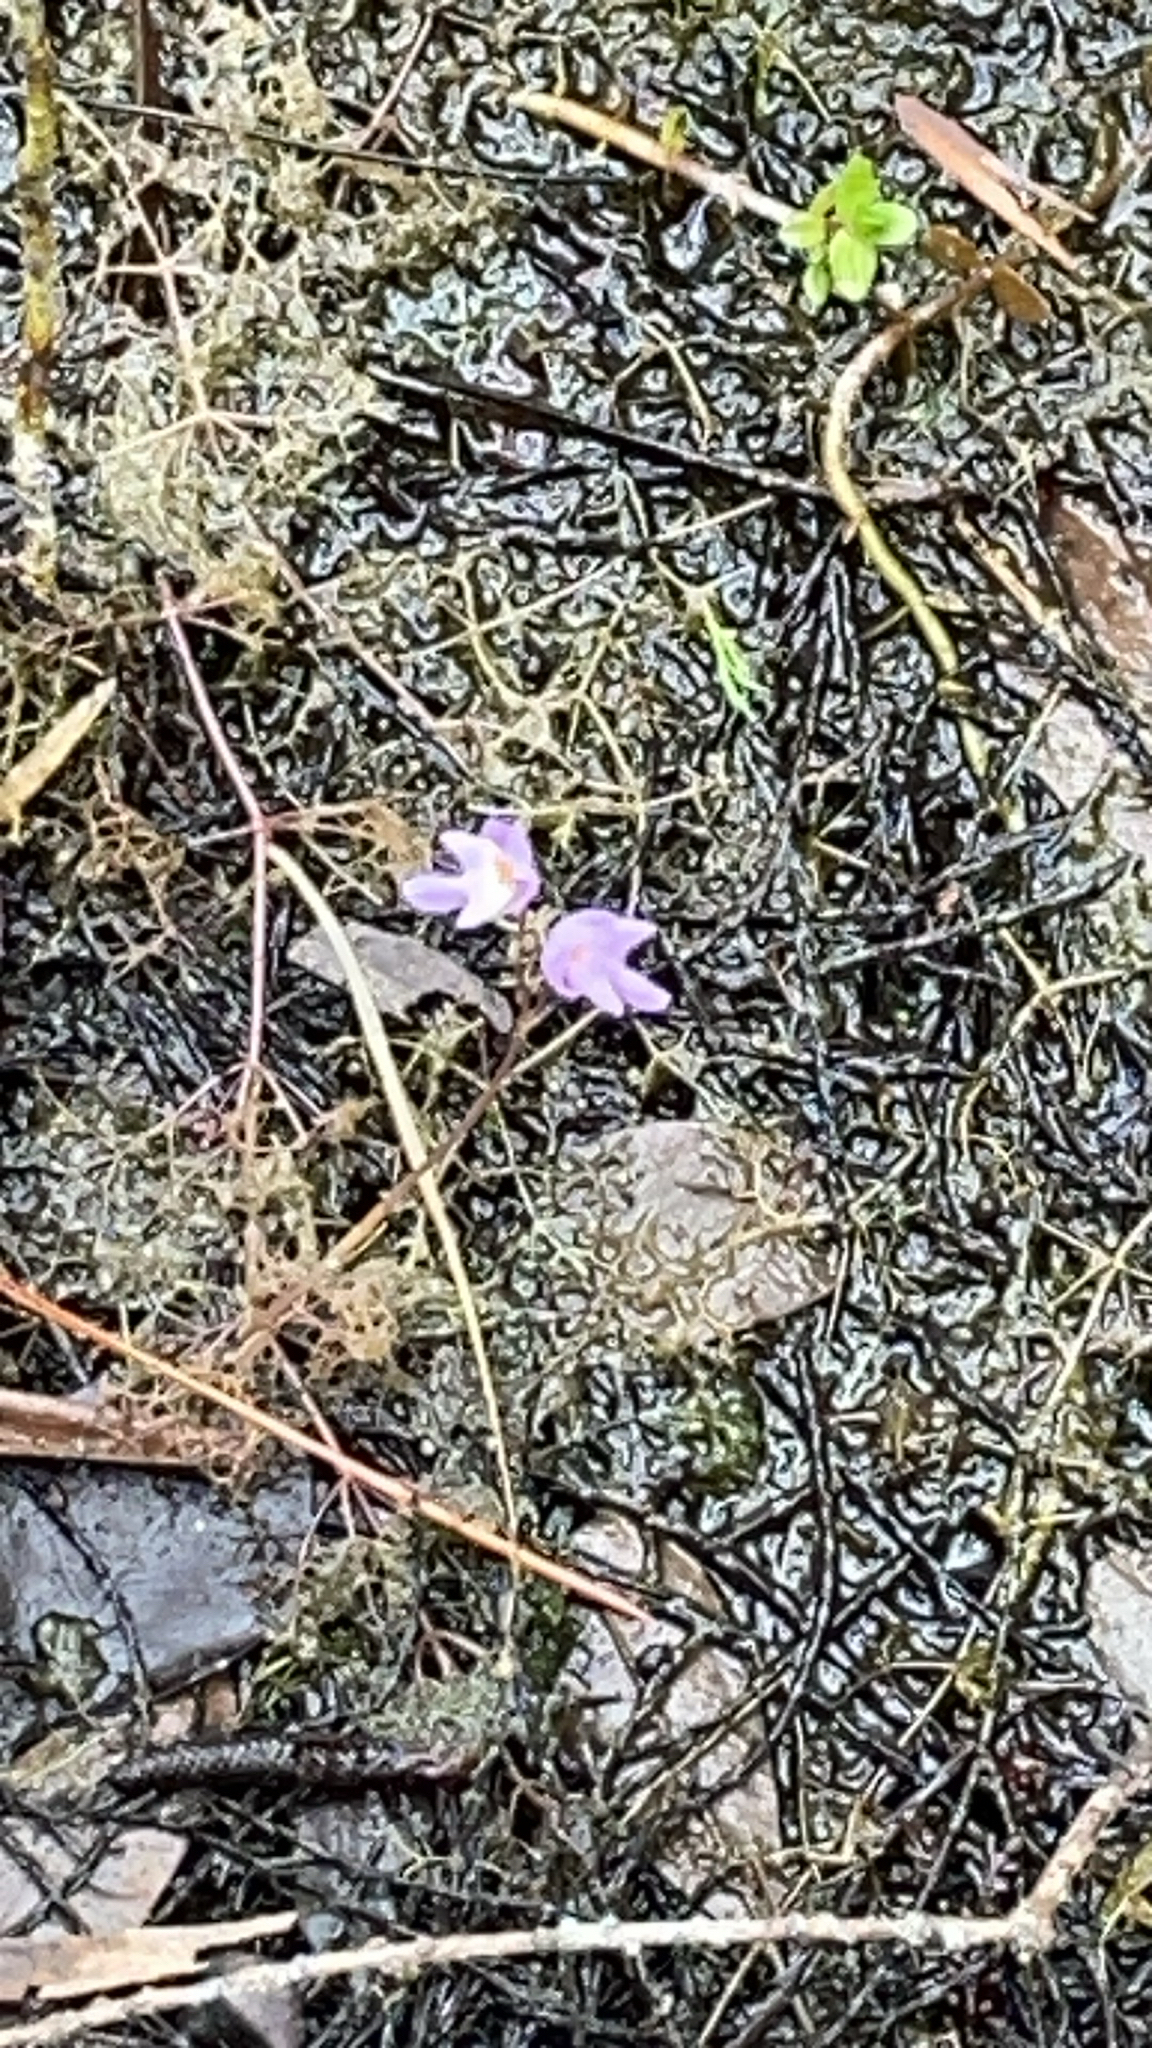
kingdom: Plantae
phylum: Tracheophyta
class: Magnoliopsida
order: Lamiales
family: Lentibulariaceae
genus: Utricularia
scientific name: Utricularia purpurea
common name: Eastern purple bladderwort
